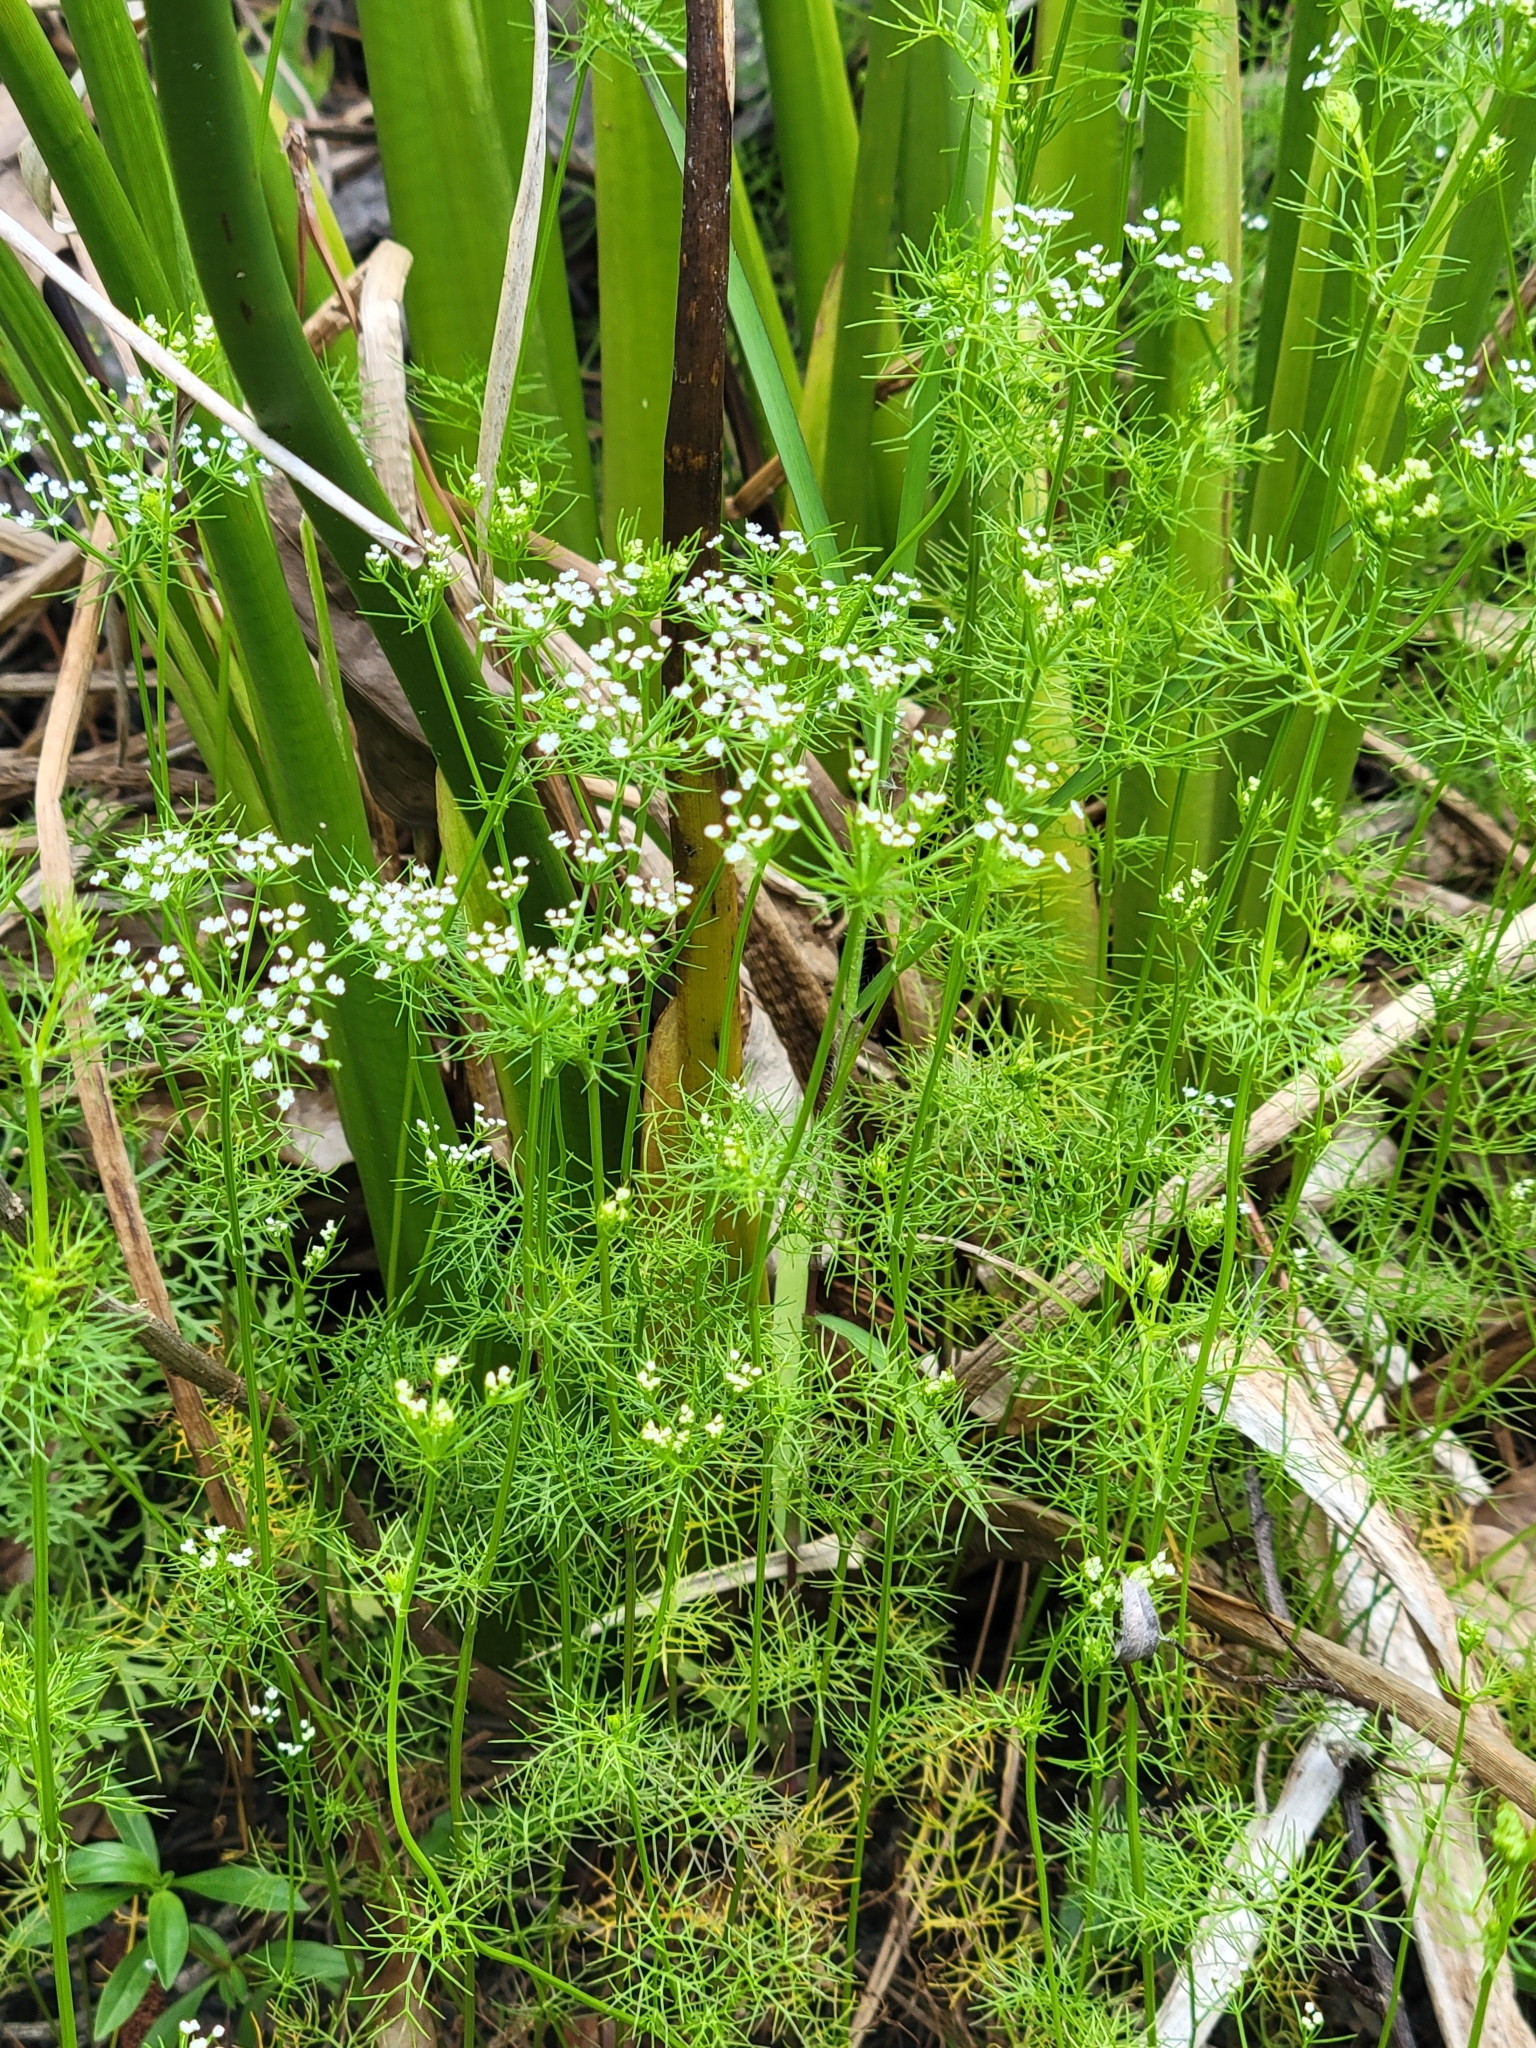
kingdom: Plantae
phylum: Tracheophyta
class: Magnoliopsida
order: Apiales
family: Apiaceae
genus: Ptilimnium
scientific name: Ptilimnium capillaceum
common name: Herbwilliam
